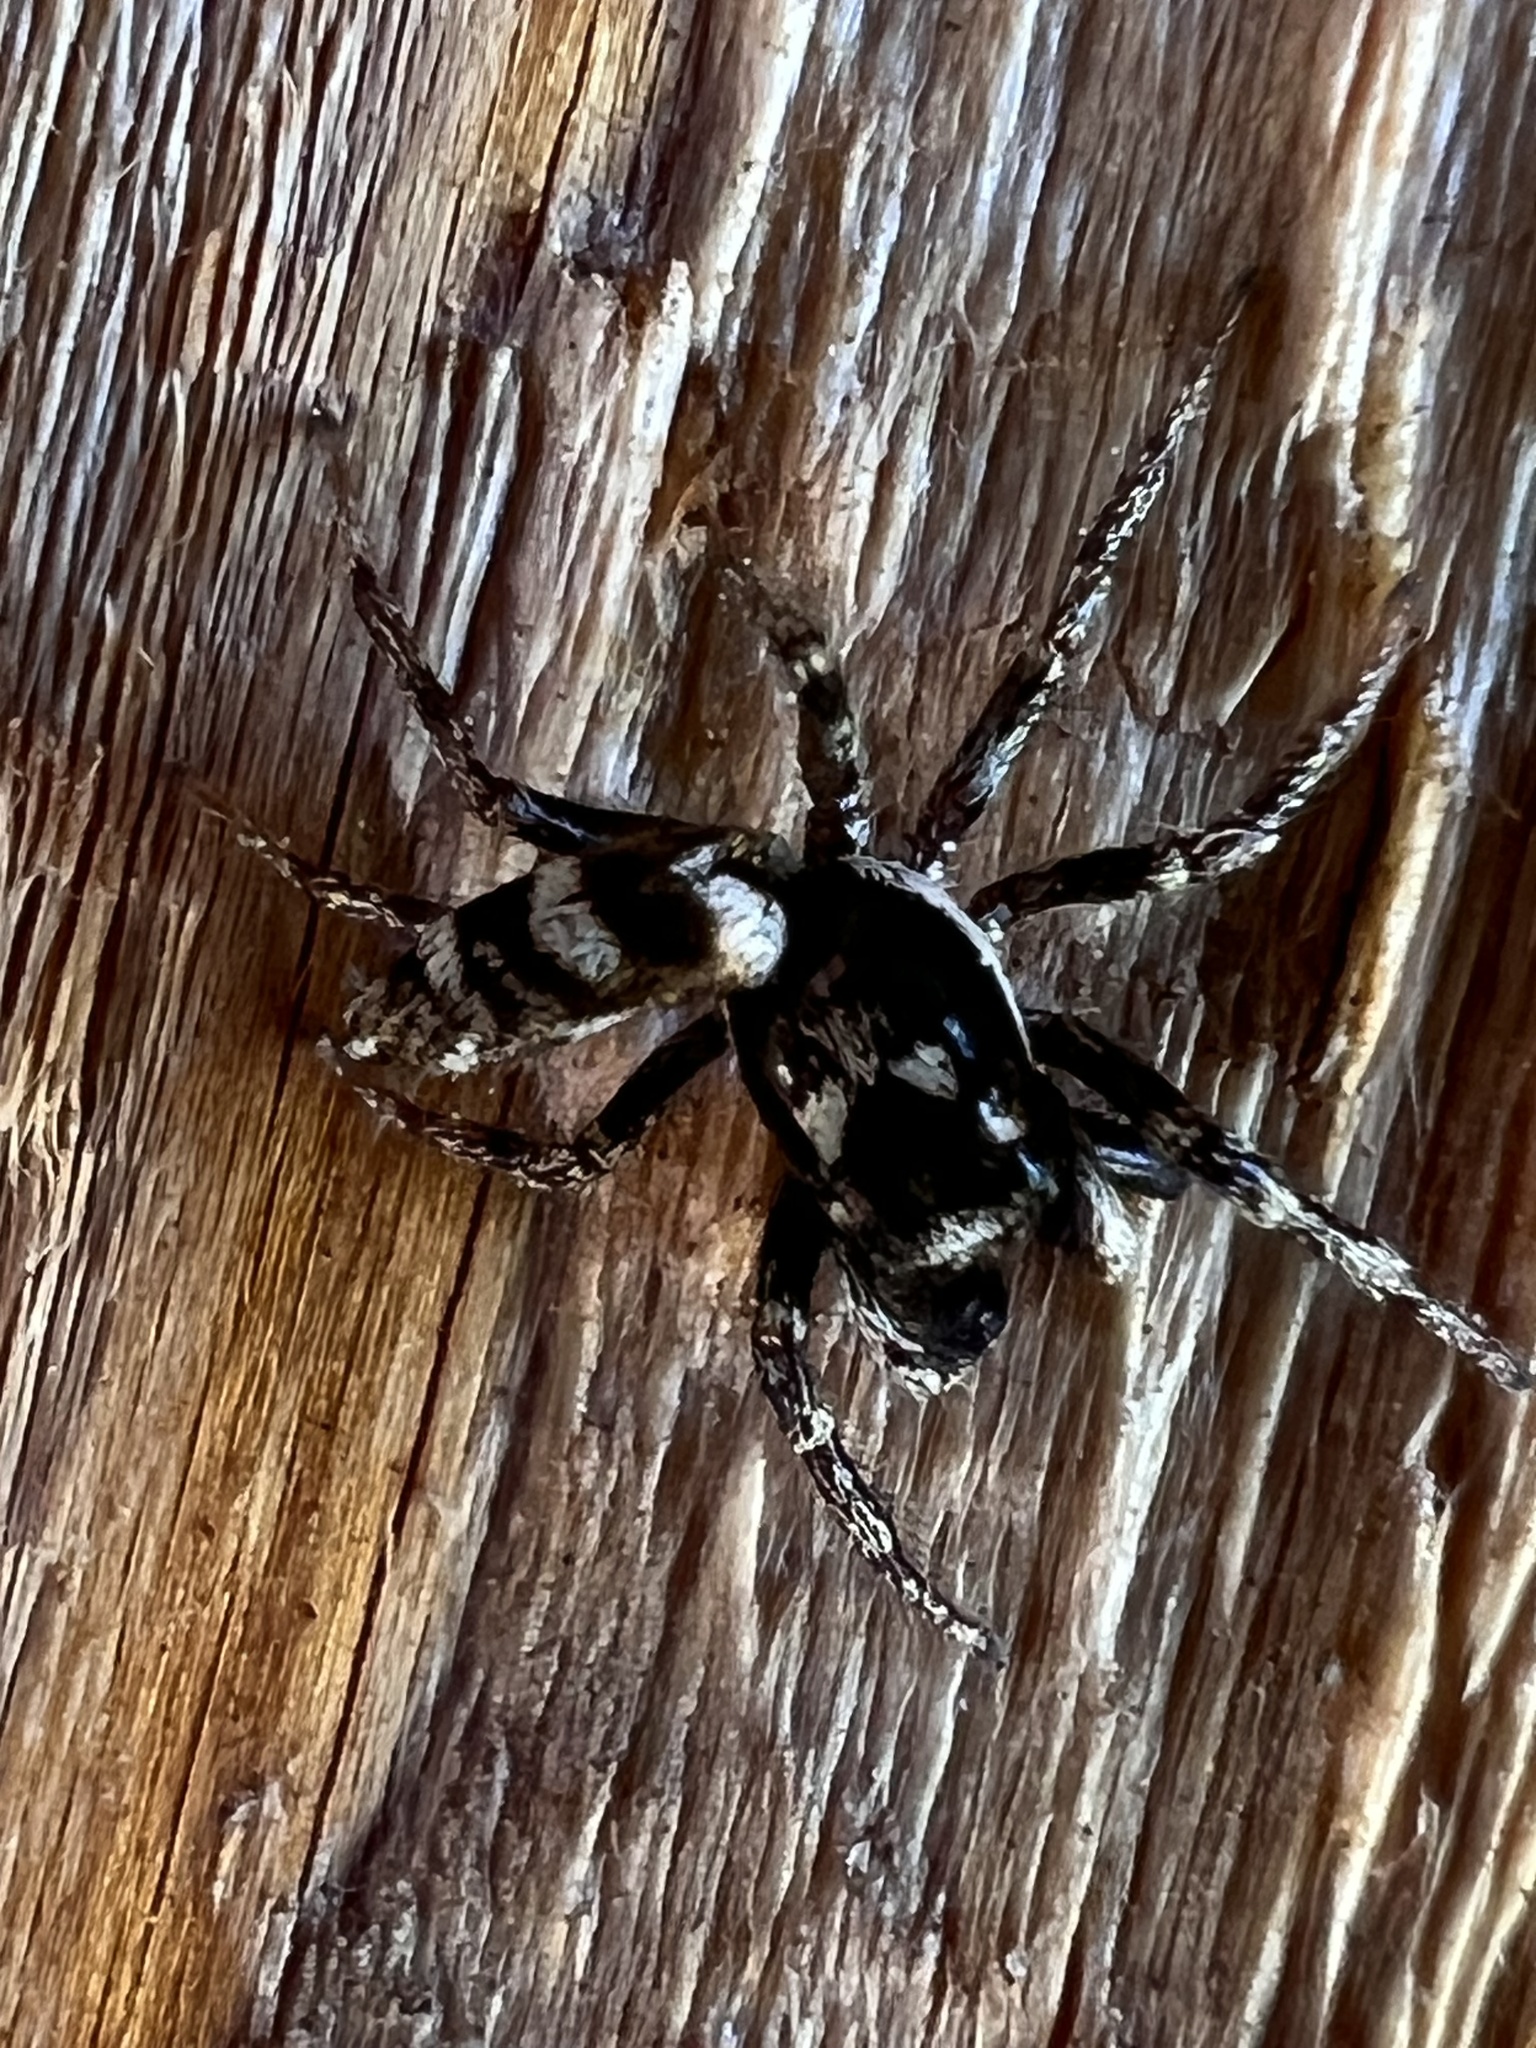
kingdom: Animalia
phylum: Arthropoda
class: Arachnida
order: Araneae
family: Salticidae
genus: Salticus
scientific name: Salticus scenicus
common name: Zebra jumper
